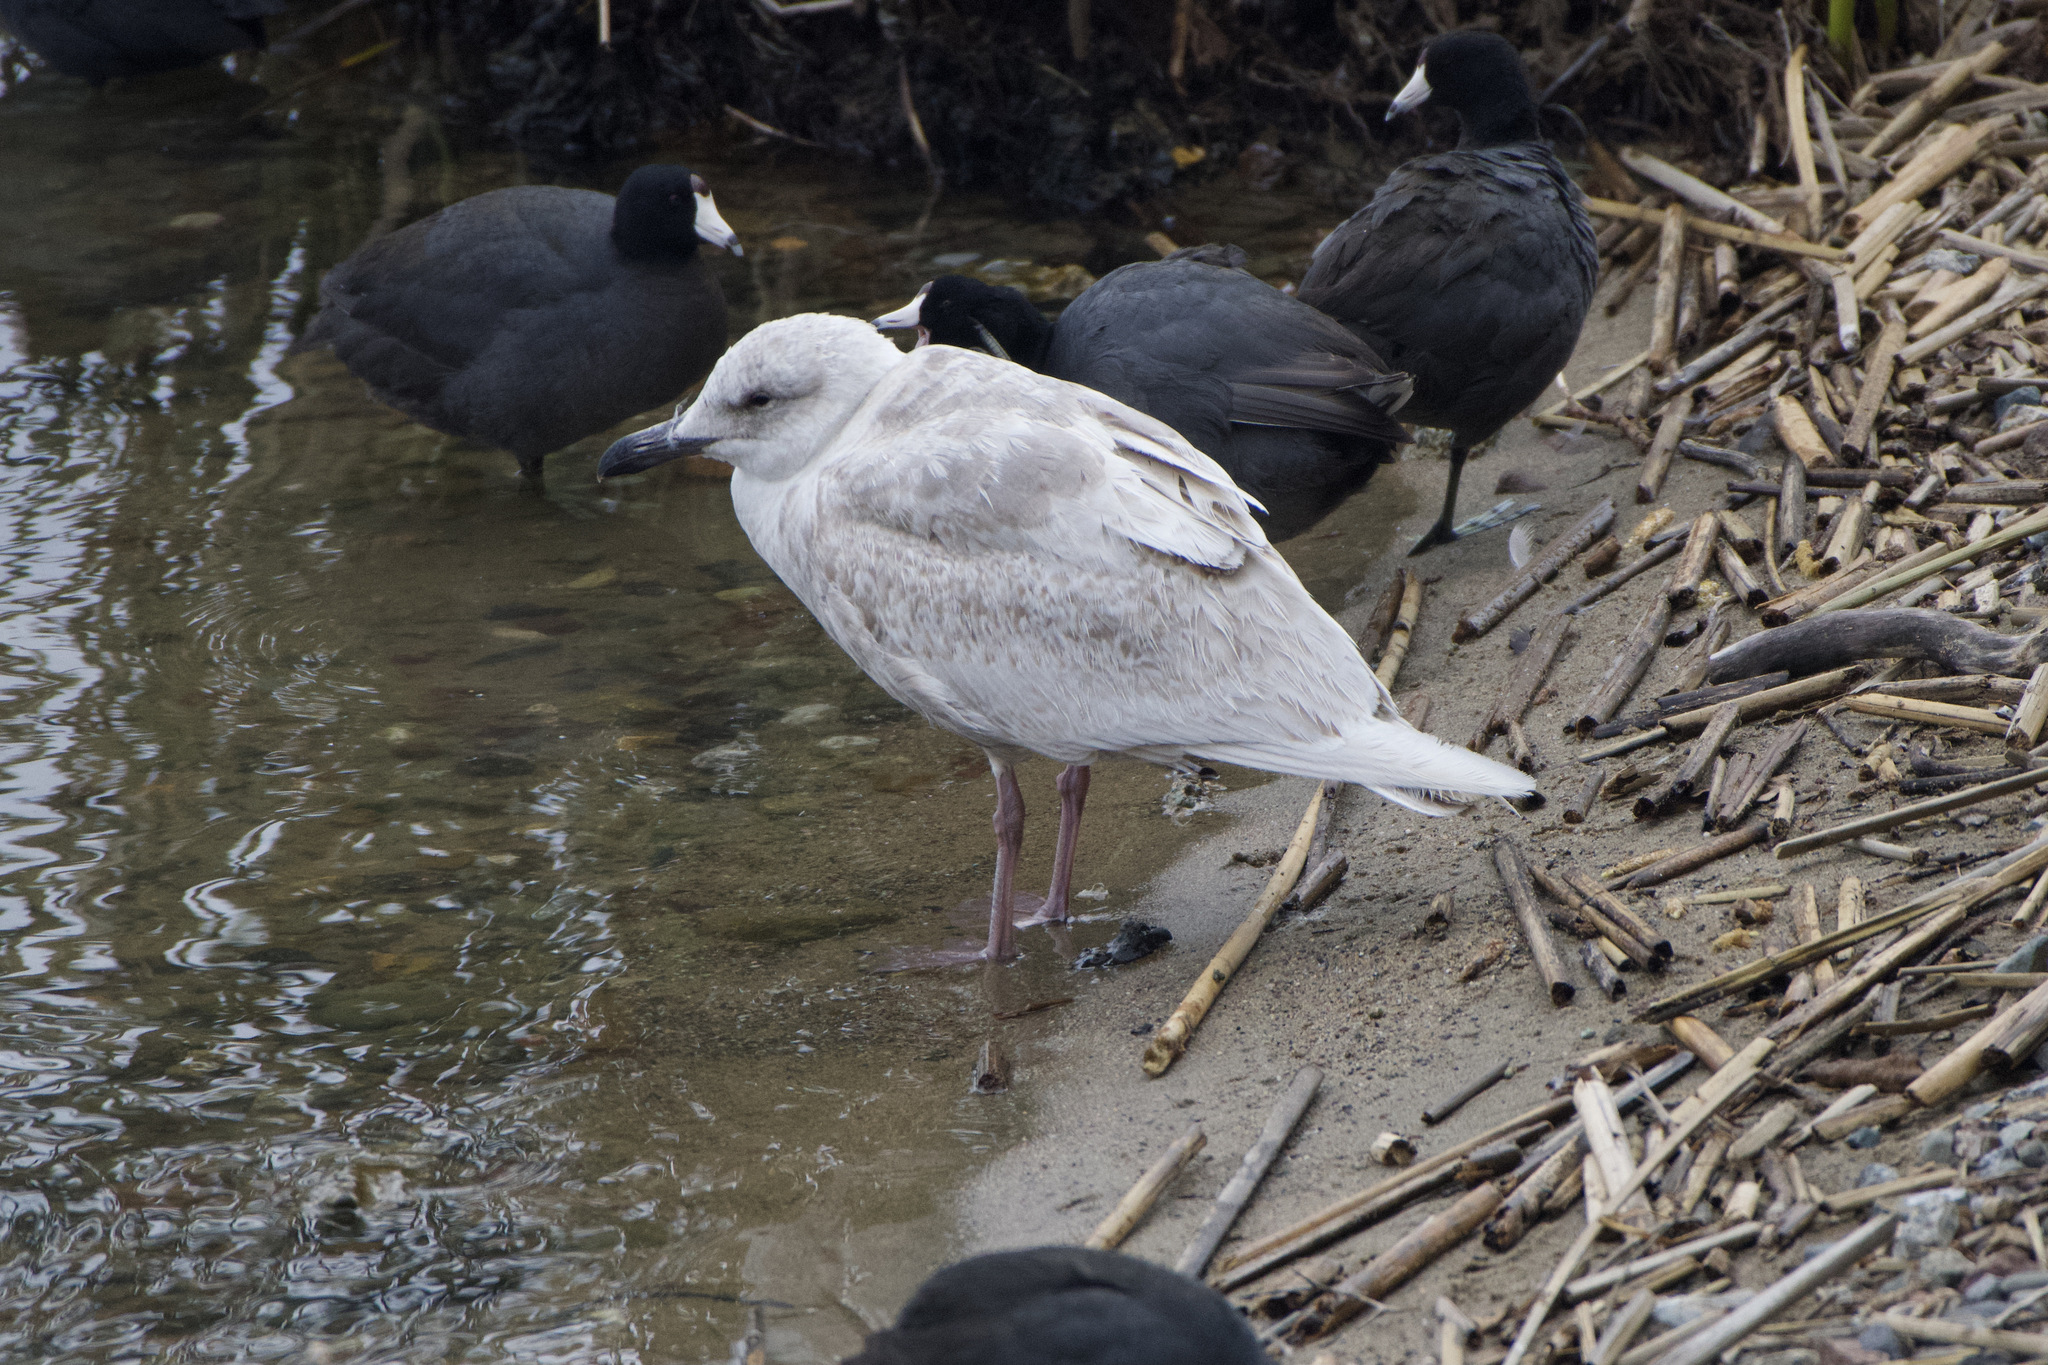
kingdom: Animalia
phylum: Chordata
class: Aves
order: Charadriiformes
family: Laridae
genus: Larus
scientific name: Larus glaucescens
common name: Glaucous-winged gull
